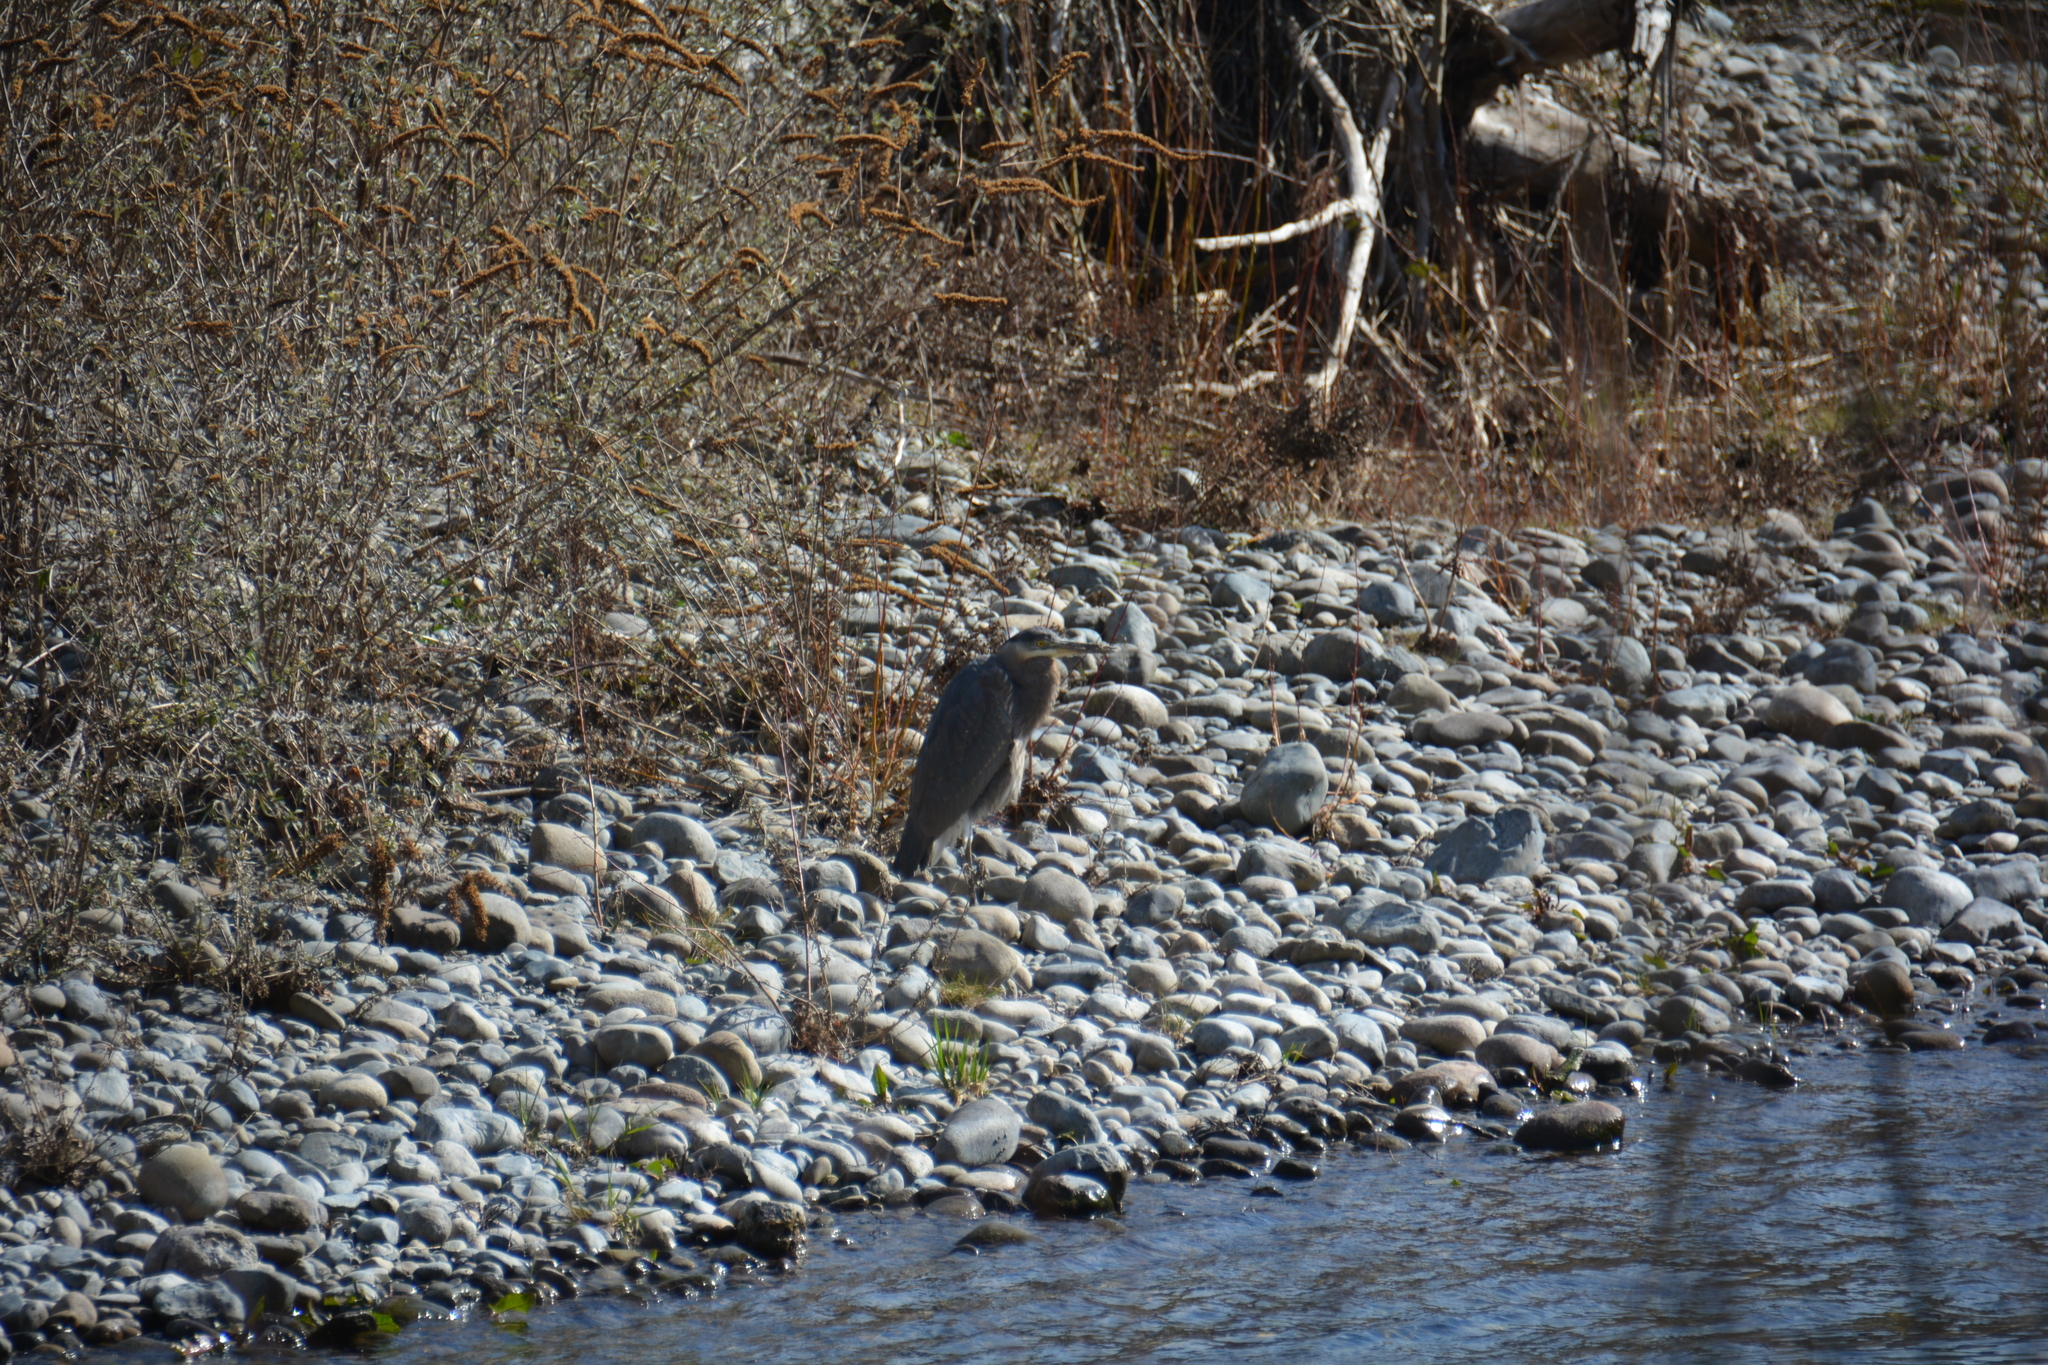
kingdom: Animalia
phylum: Chordata
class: Aves
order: Pelecaniformes
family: Ardeidae
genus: Ardea
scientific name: Ardea herodias
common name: Great blue heron
